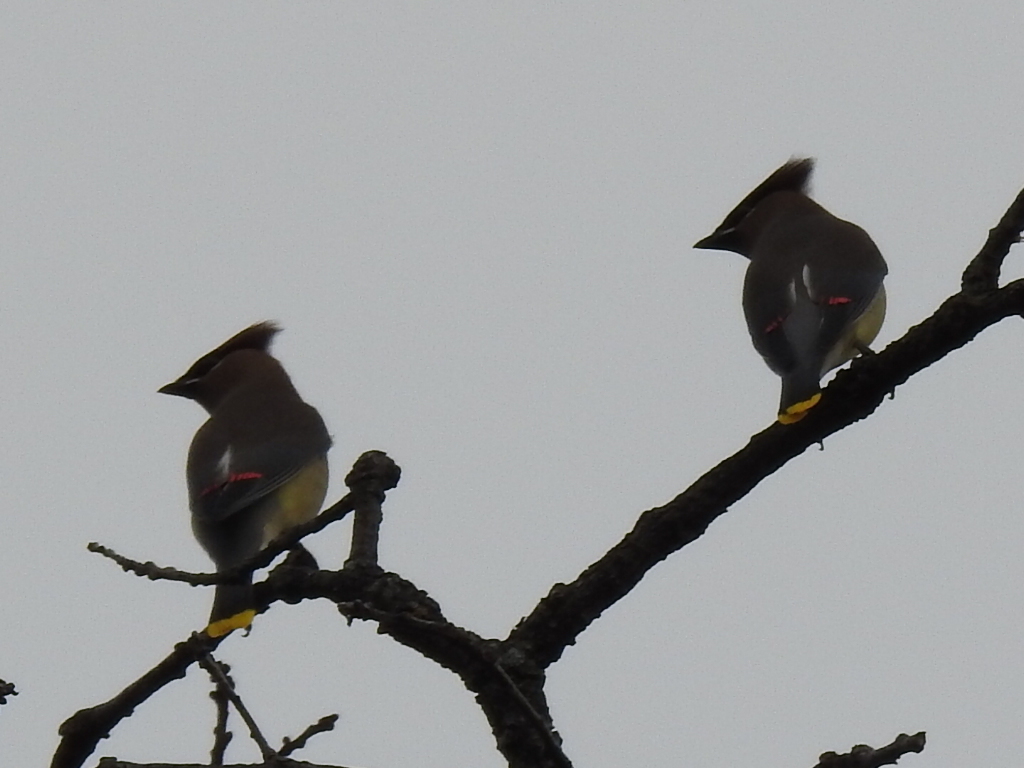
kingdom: Animalia
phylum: Chordata
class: Aves
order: Passeriformes
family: Bombycillidae
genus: Bombycilla
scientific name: Bombycilla cedrorum
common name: Cedar waxwing
